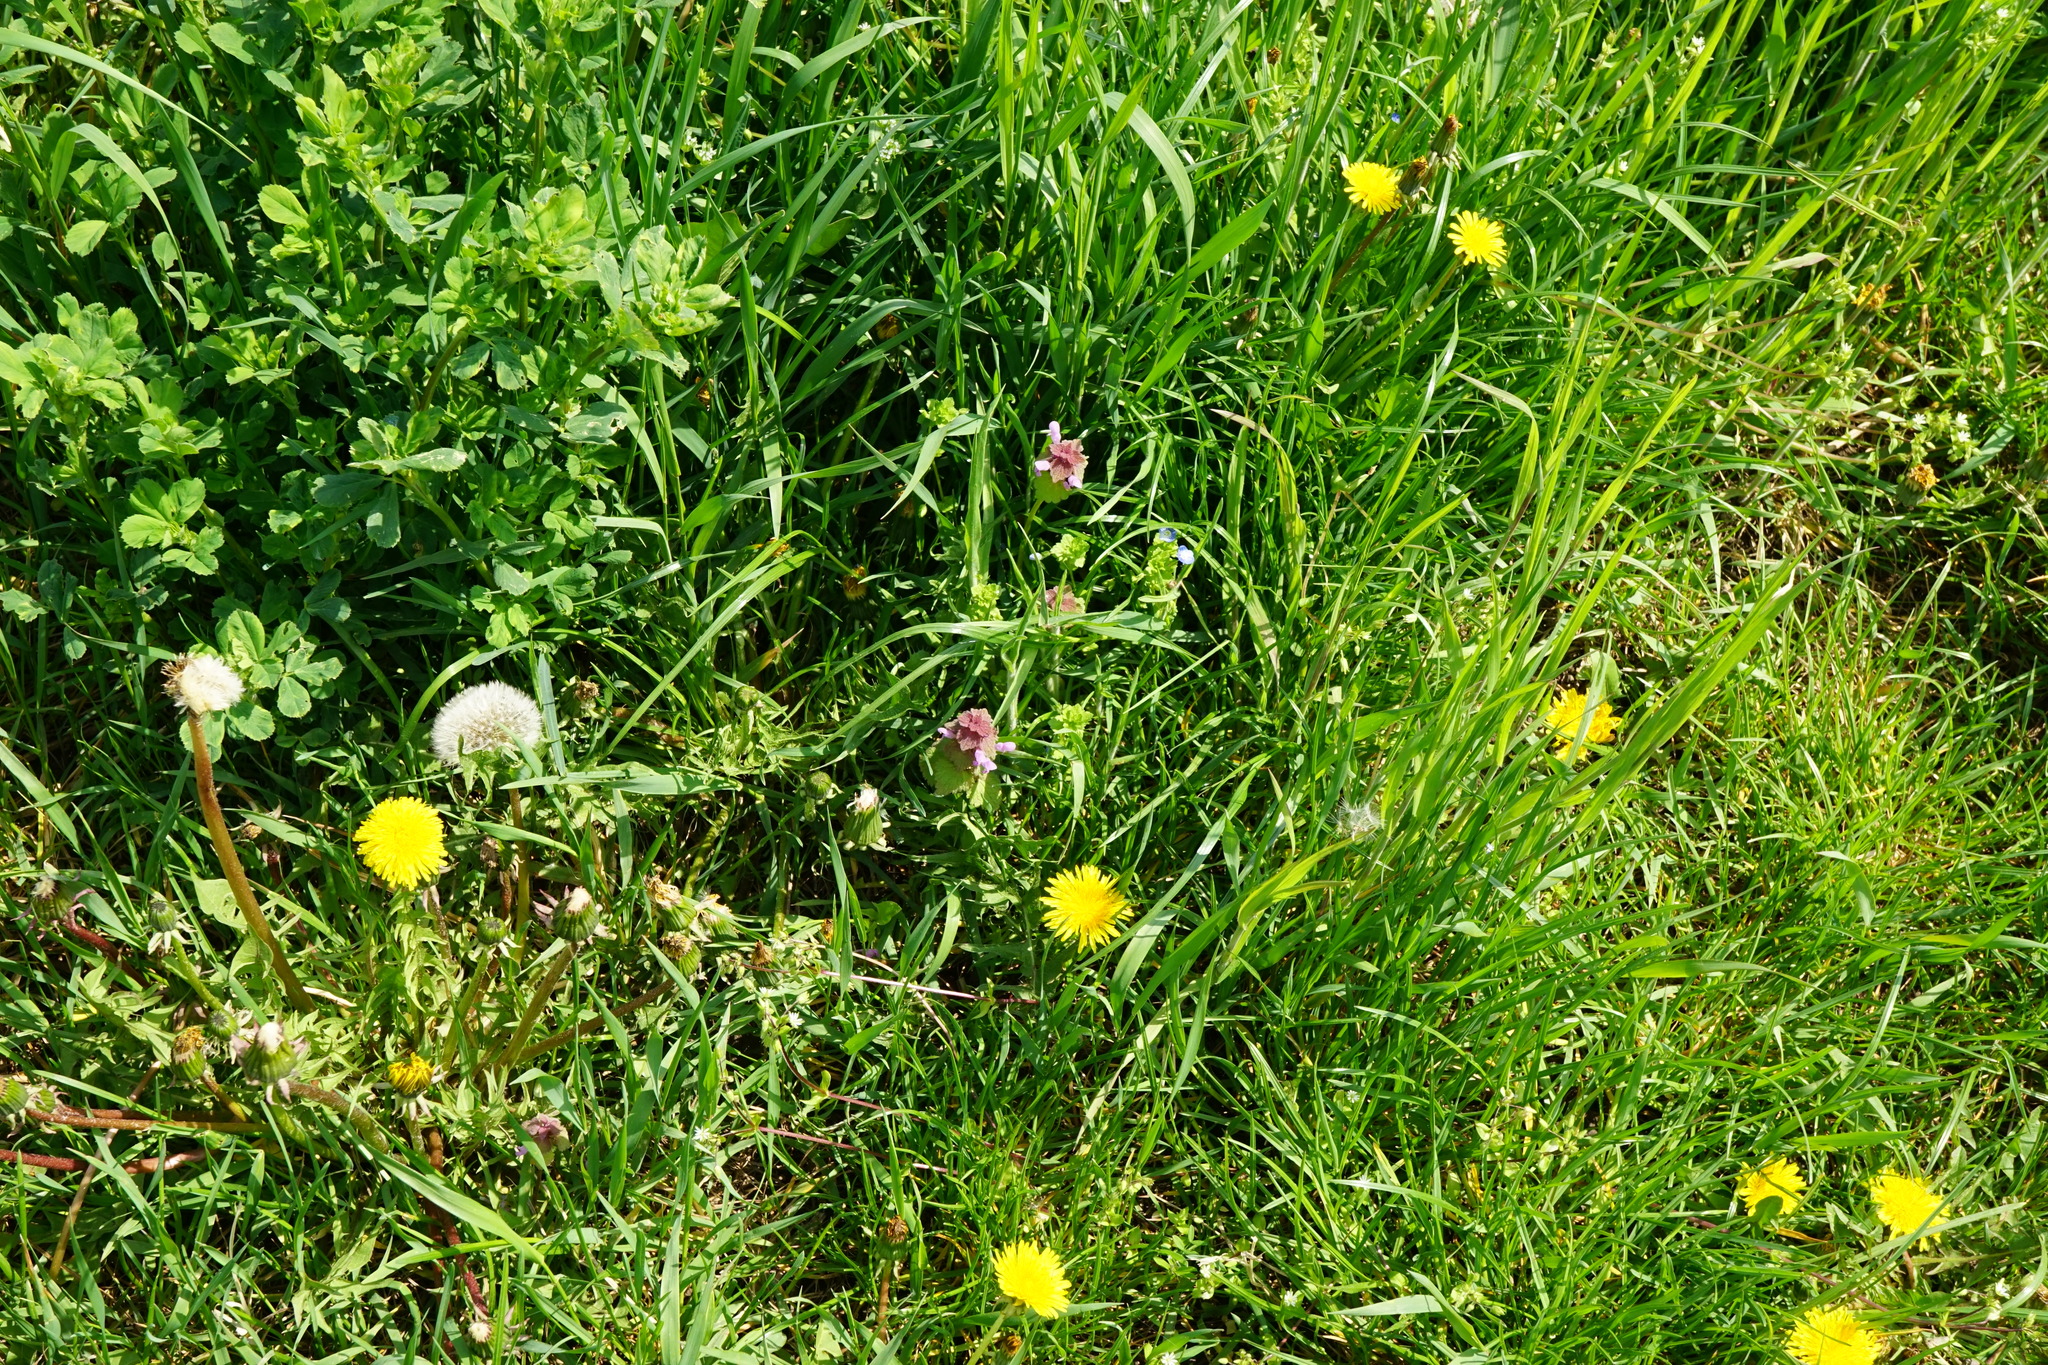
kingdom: Plantae
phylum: Tracheophyta
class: Magnoliopsida
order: Lamiales
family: Lamiaceae
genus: Lamium
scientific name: Lamium purpureum
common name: Red dead-nettle
